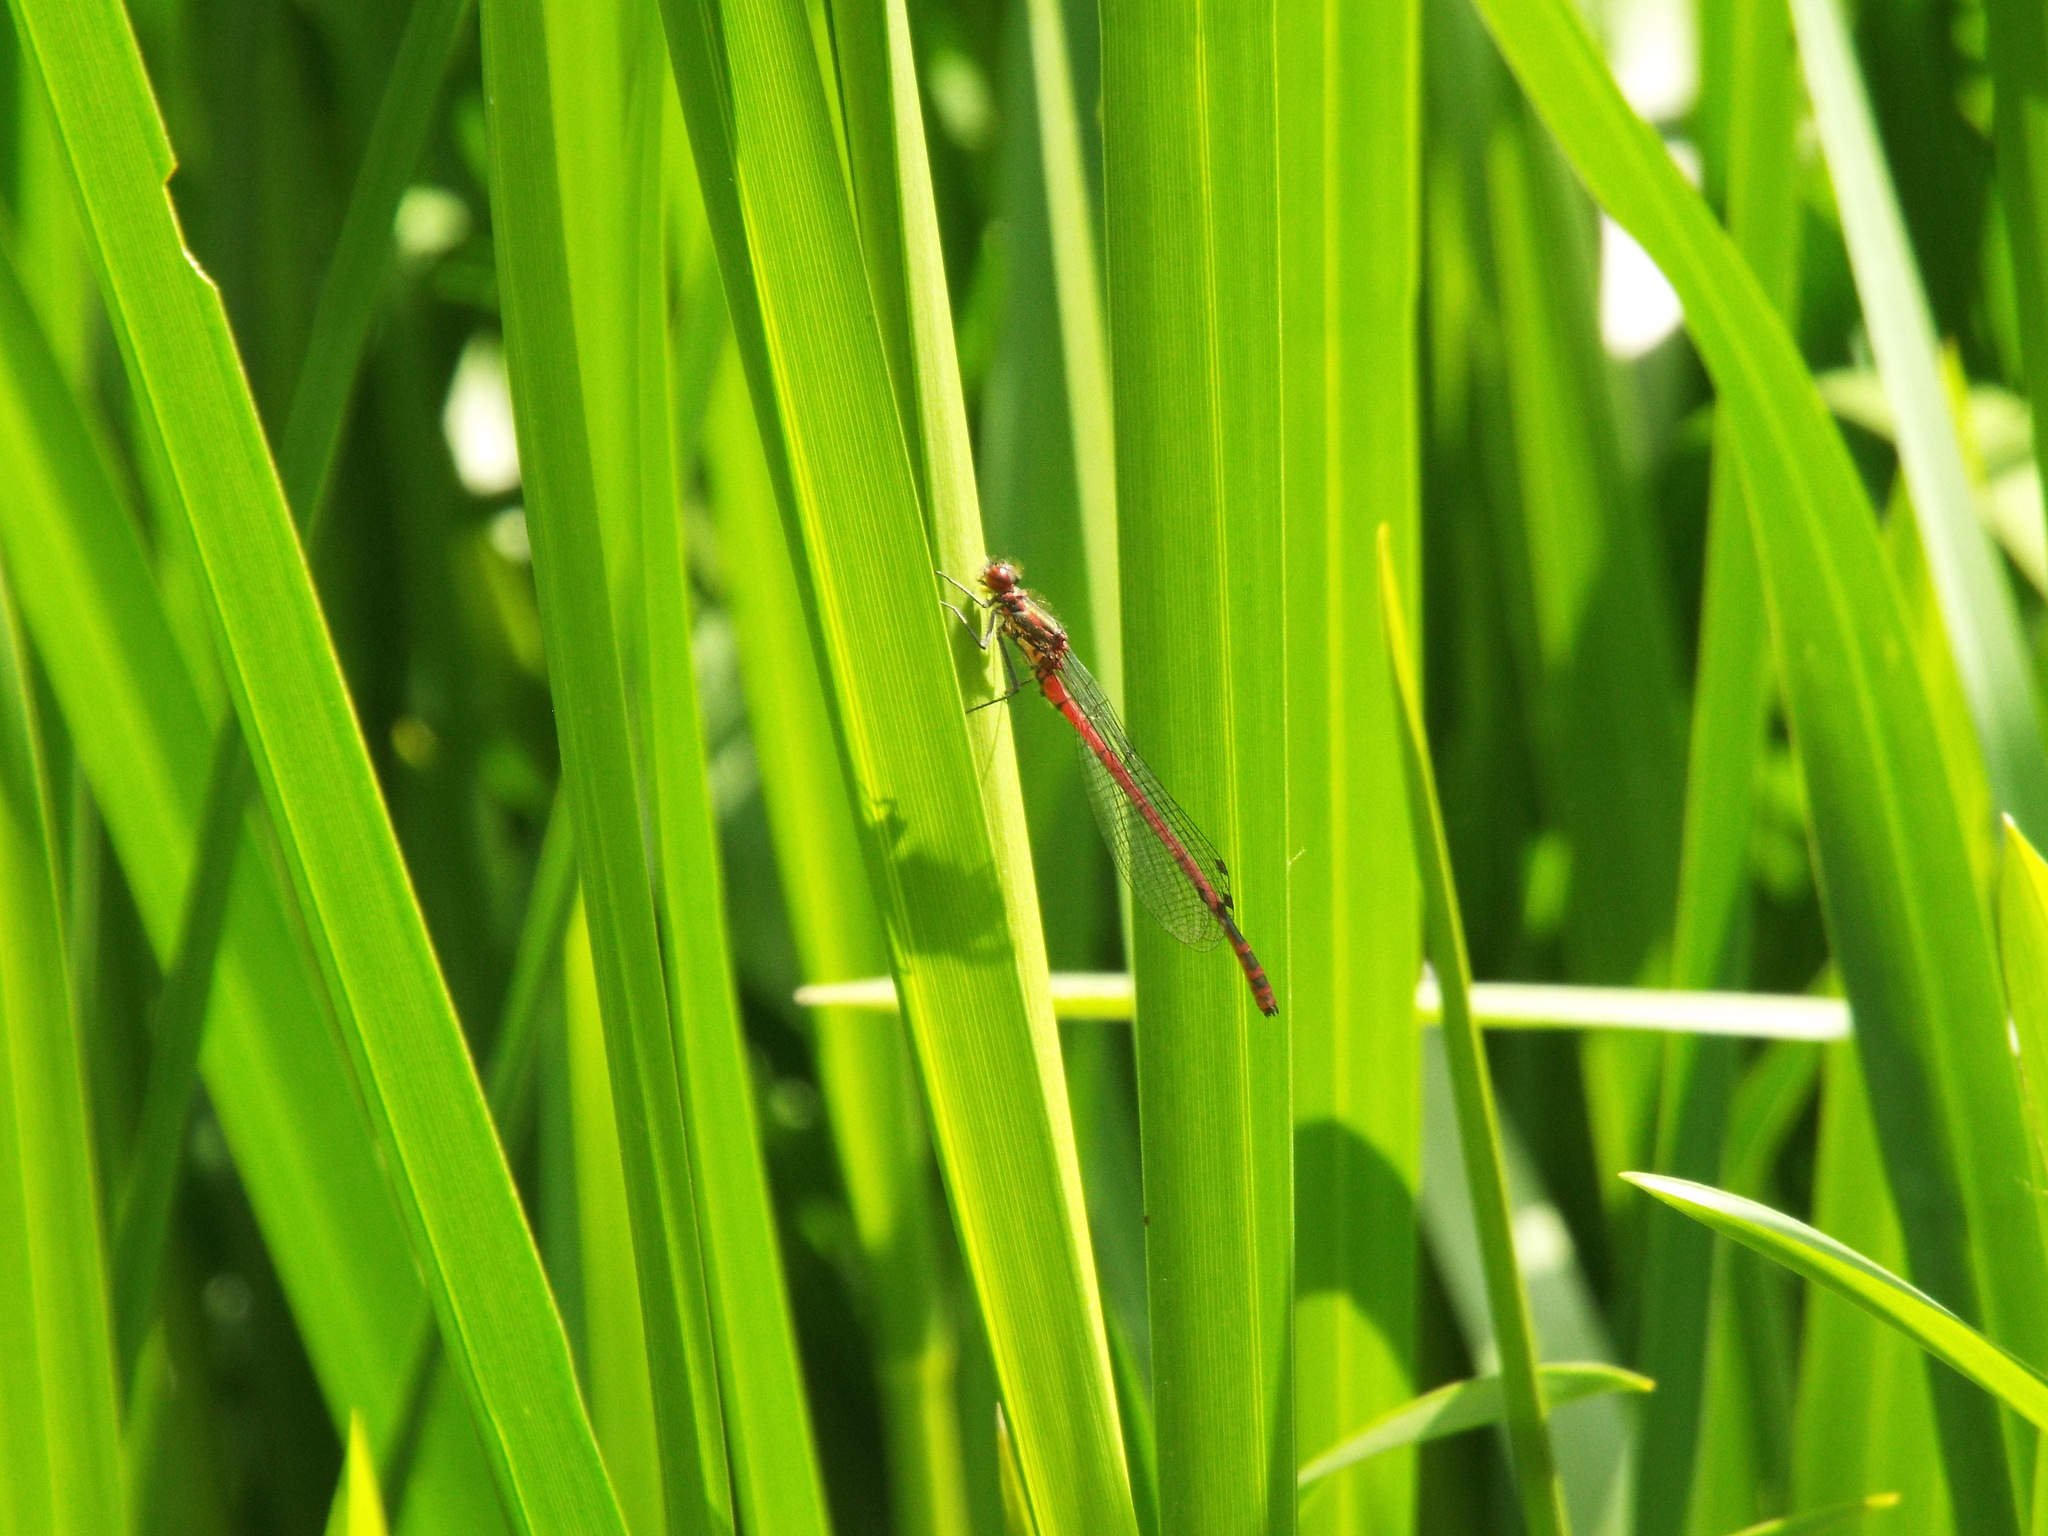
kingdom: Animalia
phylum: Arthropoda
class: Insecta
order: Odonata
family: Coenagrionidae
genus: Pyrrhosoma
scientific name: Pyrrhosoma nymphula
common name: Large red damsel
